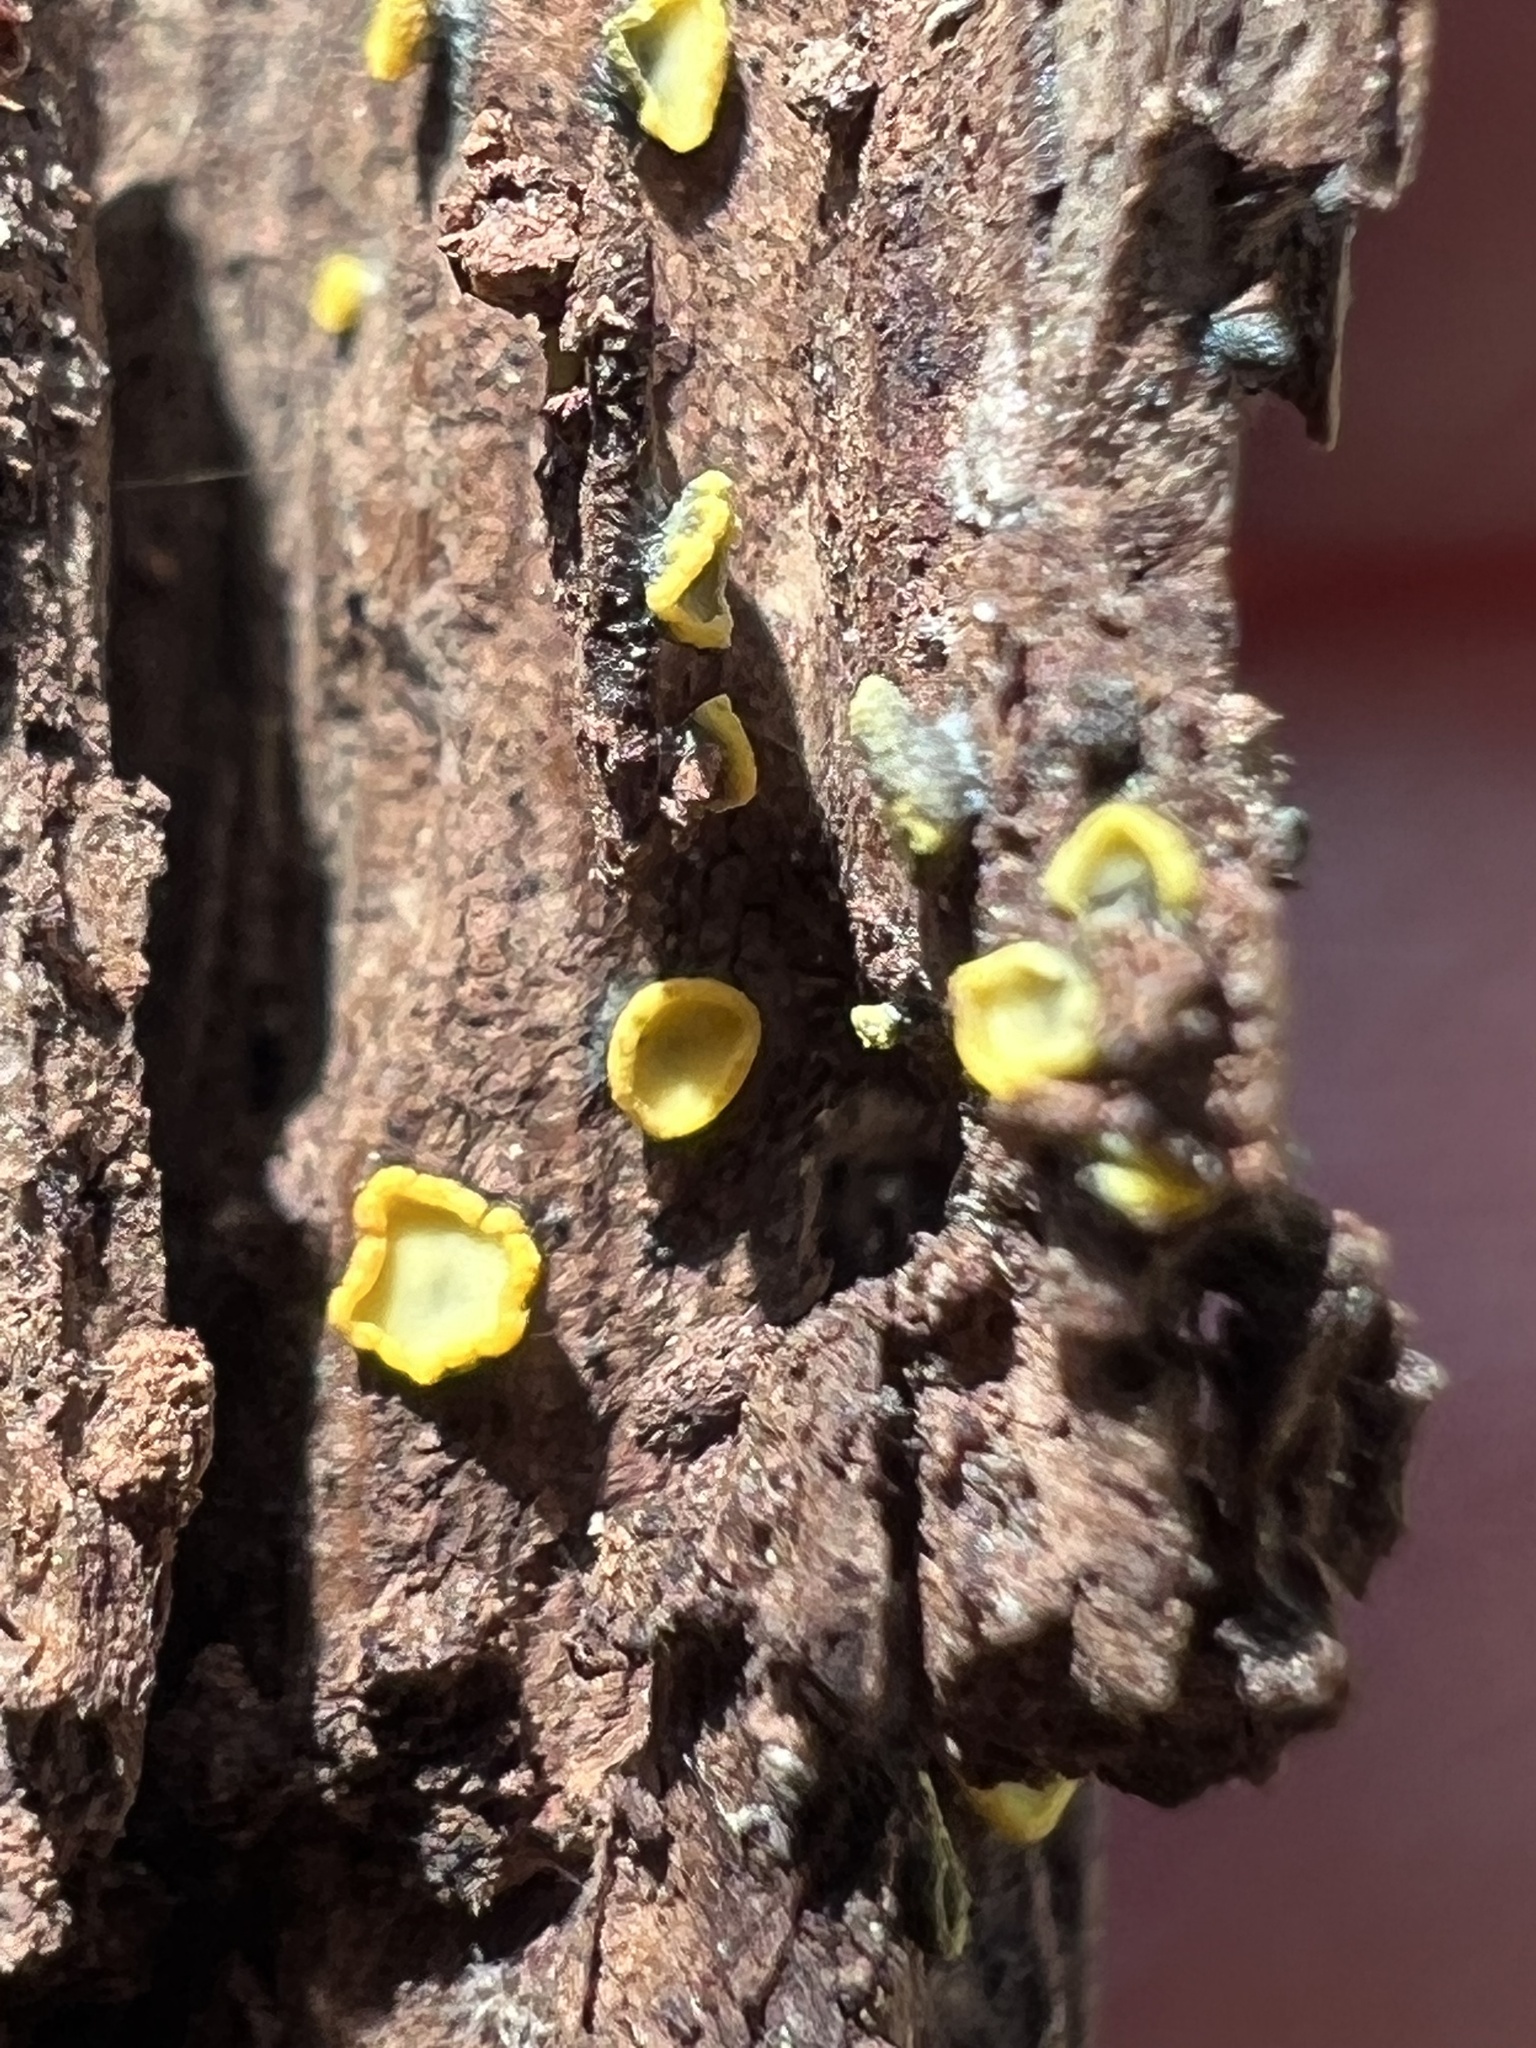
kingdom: Fungi
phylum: Ascomycota
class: Leotiomycetes
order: Helotiales
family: Chlorospleniaceae
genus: Chlorosplenium
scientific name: Chlorosplenium chlora
